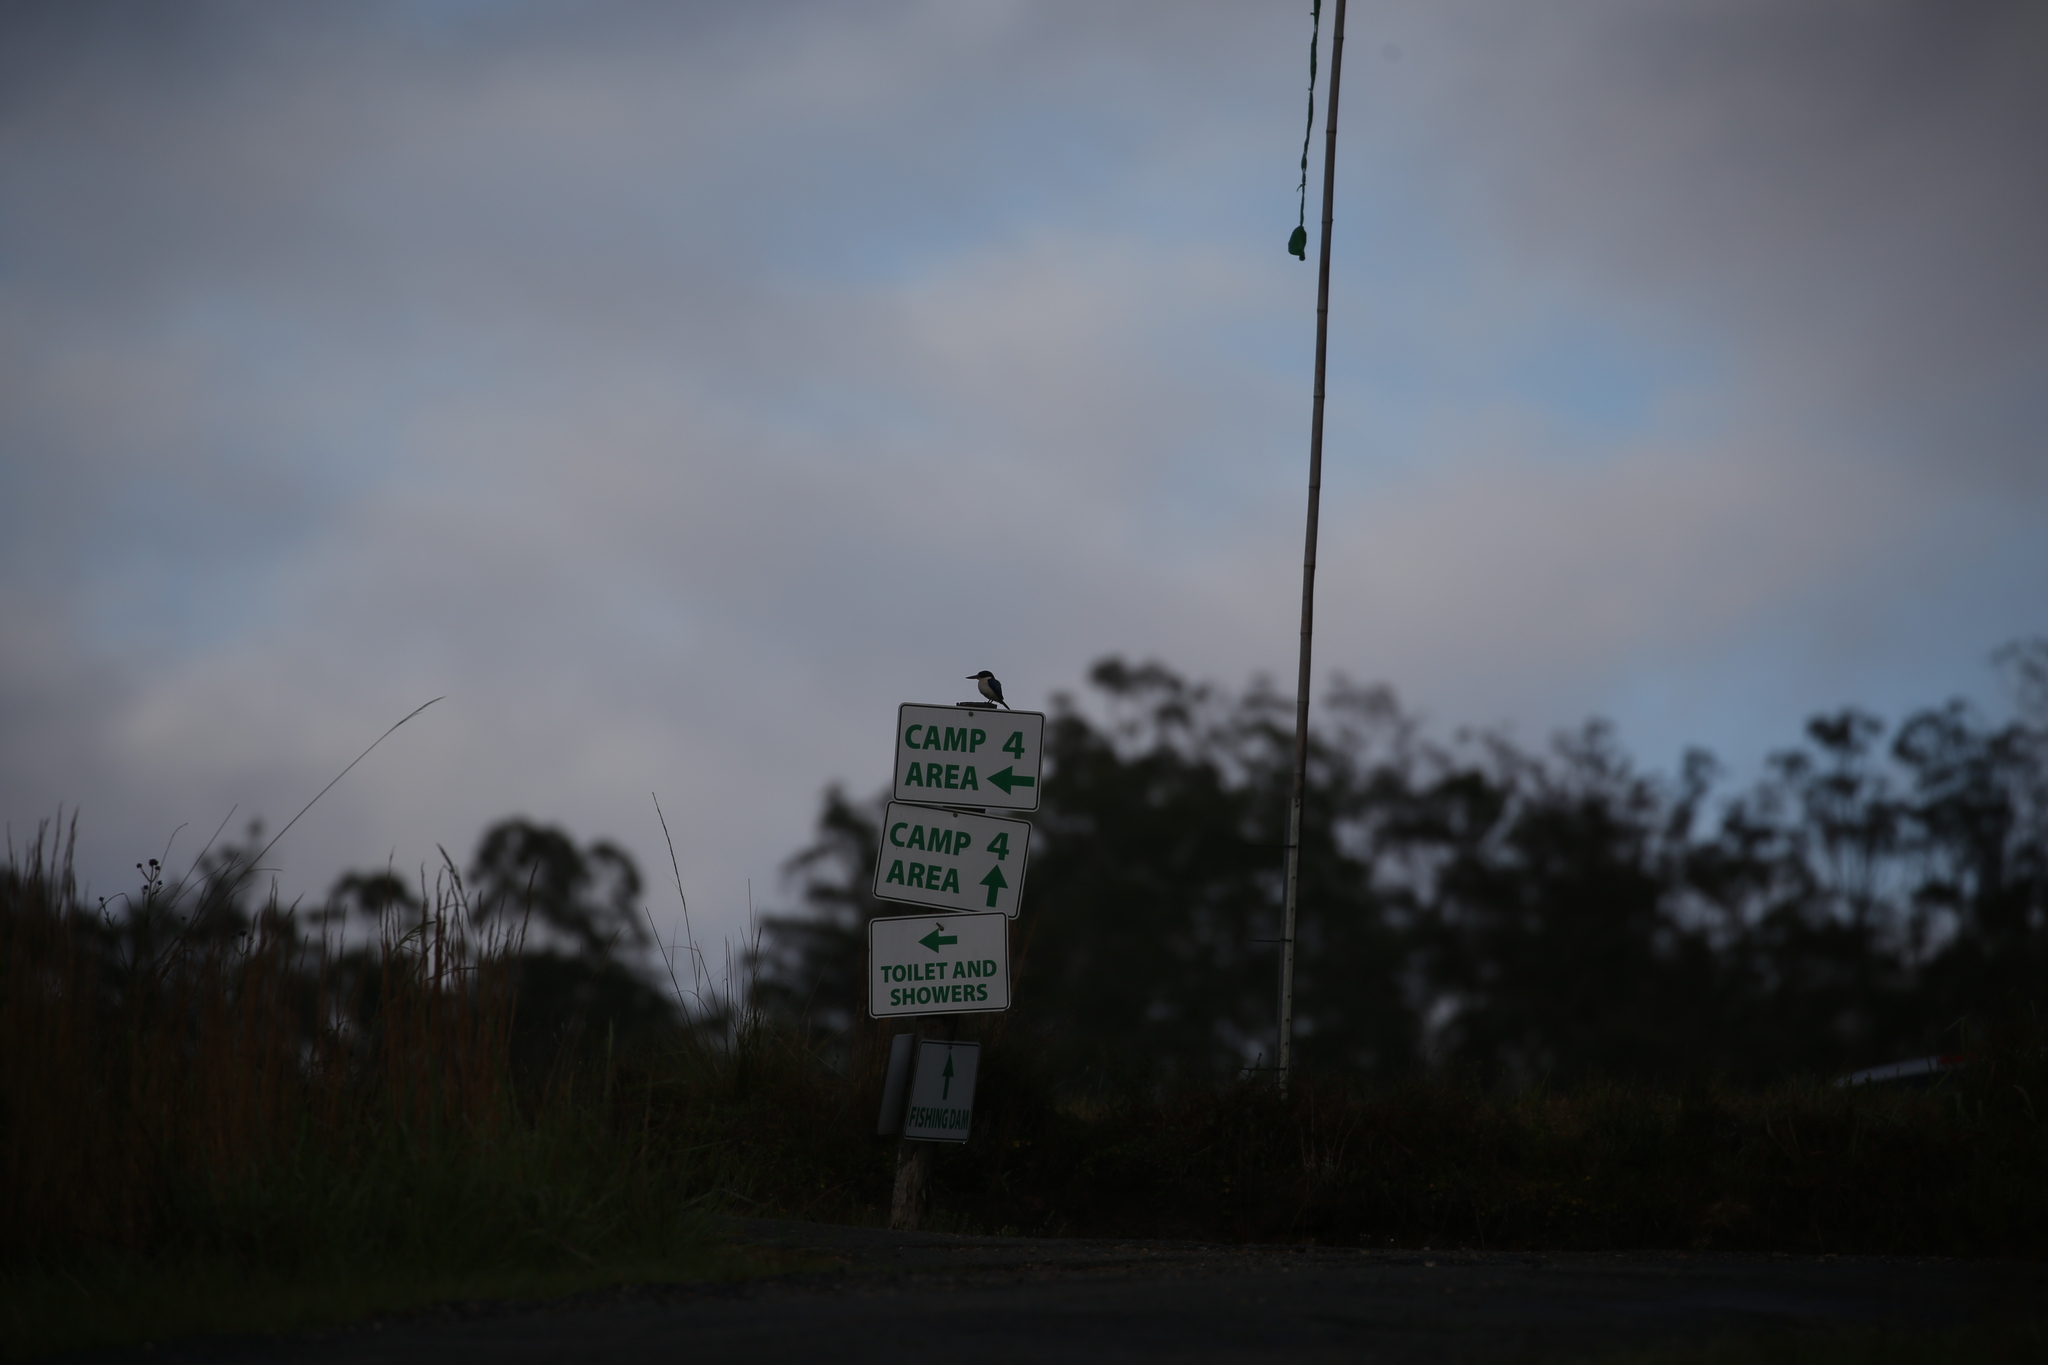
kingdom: Animalia
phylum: Chordata
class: Aves
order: Coraciiformes
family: Alcedinidae
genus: Todiramphus
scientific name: Todiramphus macleayii
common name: Forest kingfisher
